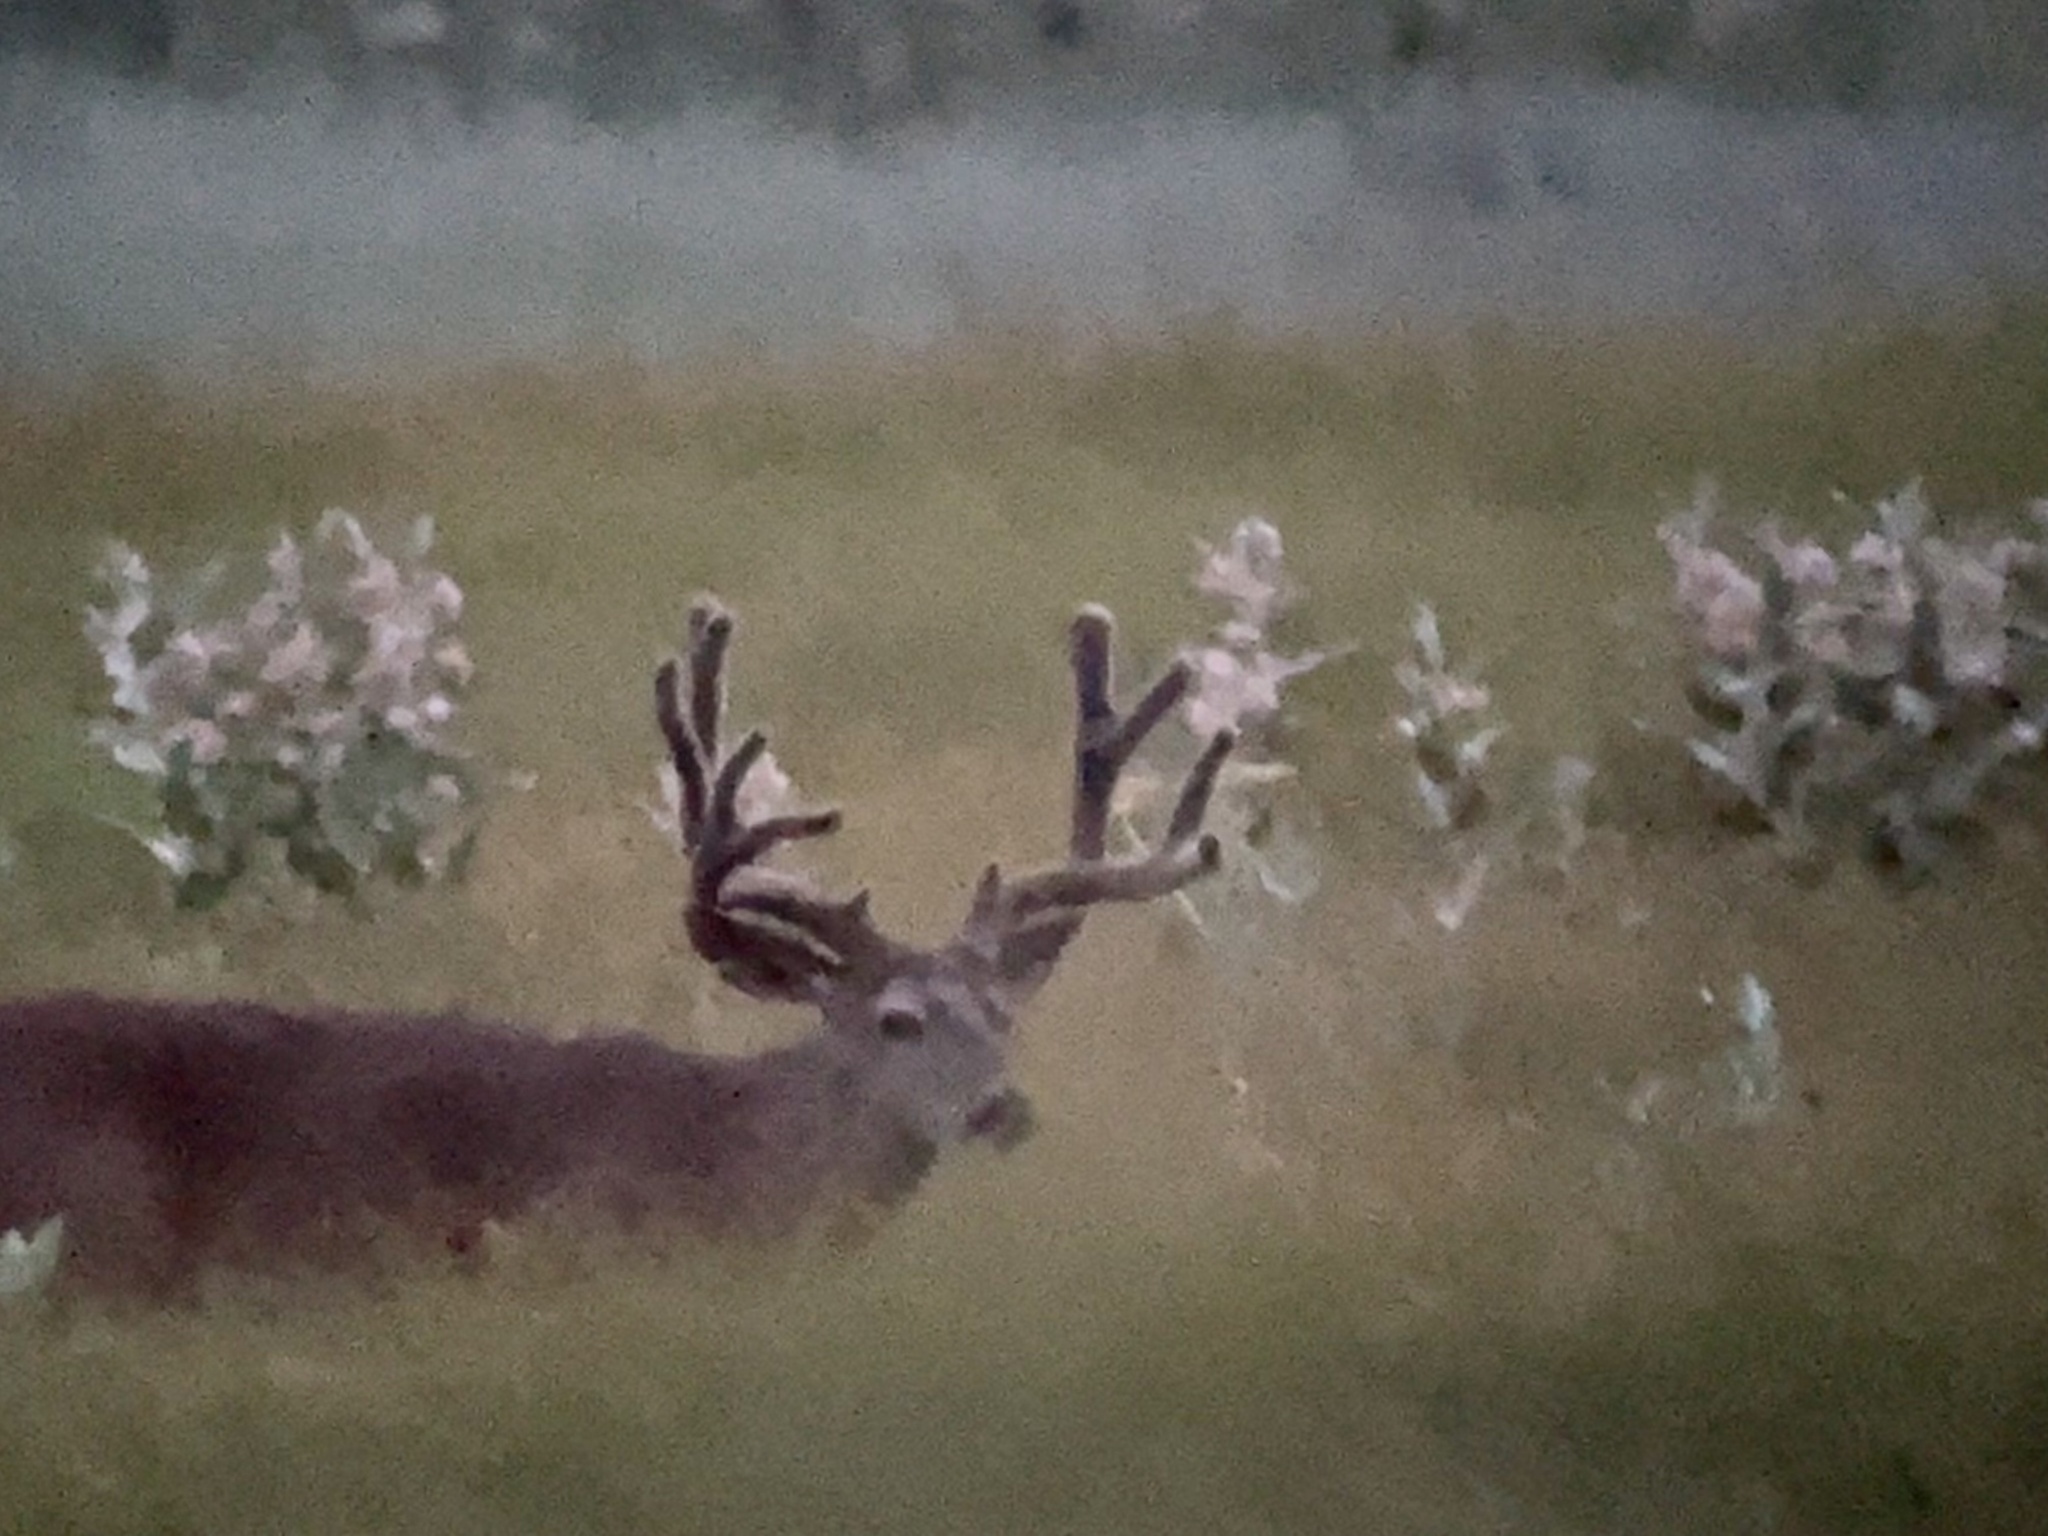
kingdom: Animalia
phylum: Chordata
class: Mammalia
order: Artiodactyla
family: Cervidae
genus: Odocoileus
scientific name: Odocoileus hemionus
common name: Mule deer
